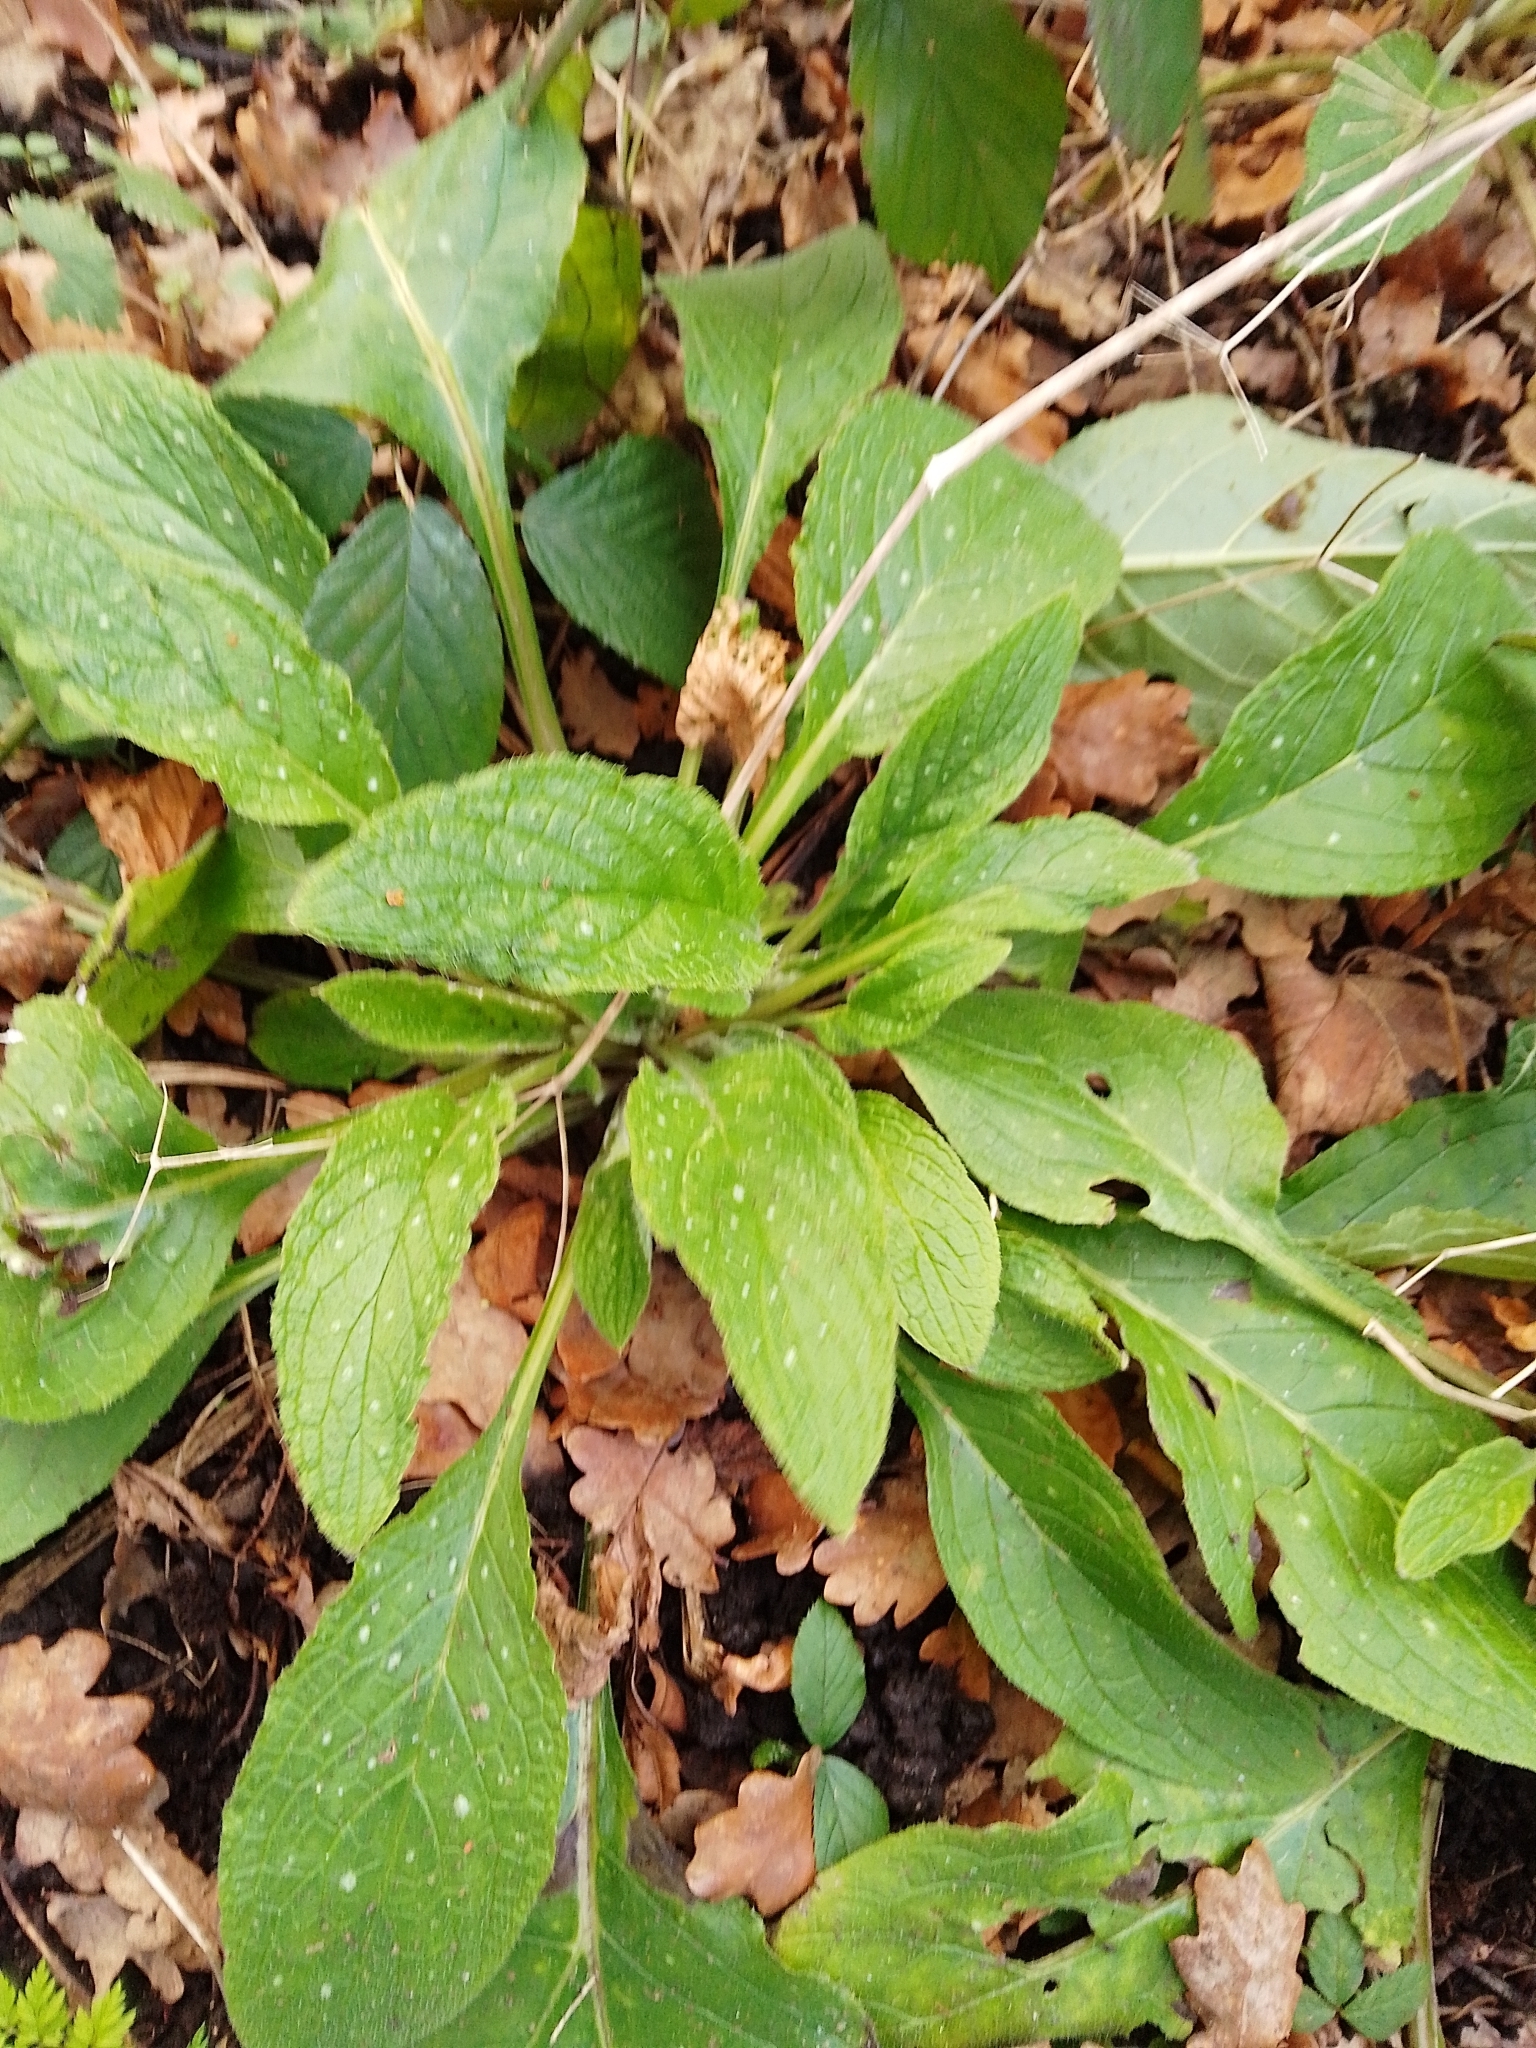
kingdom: Plantae
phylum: Tracheophyta
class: Magnoliopsida
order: Boraginales
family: Boraginaceae
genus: Pentaglottis
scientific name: Pentaglottis sempervirens
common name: Green alkanet
